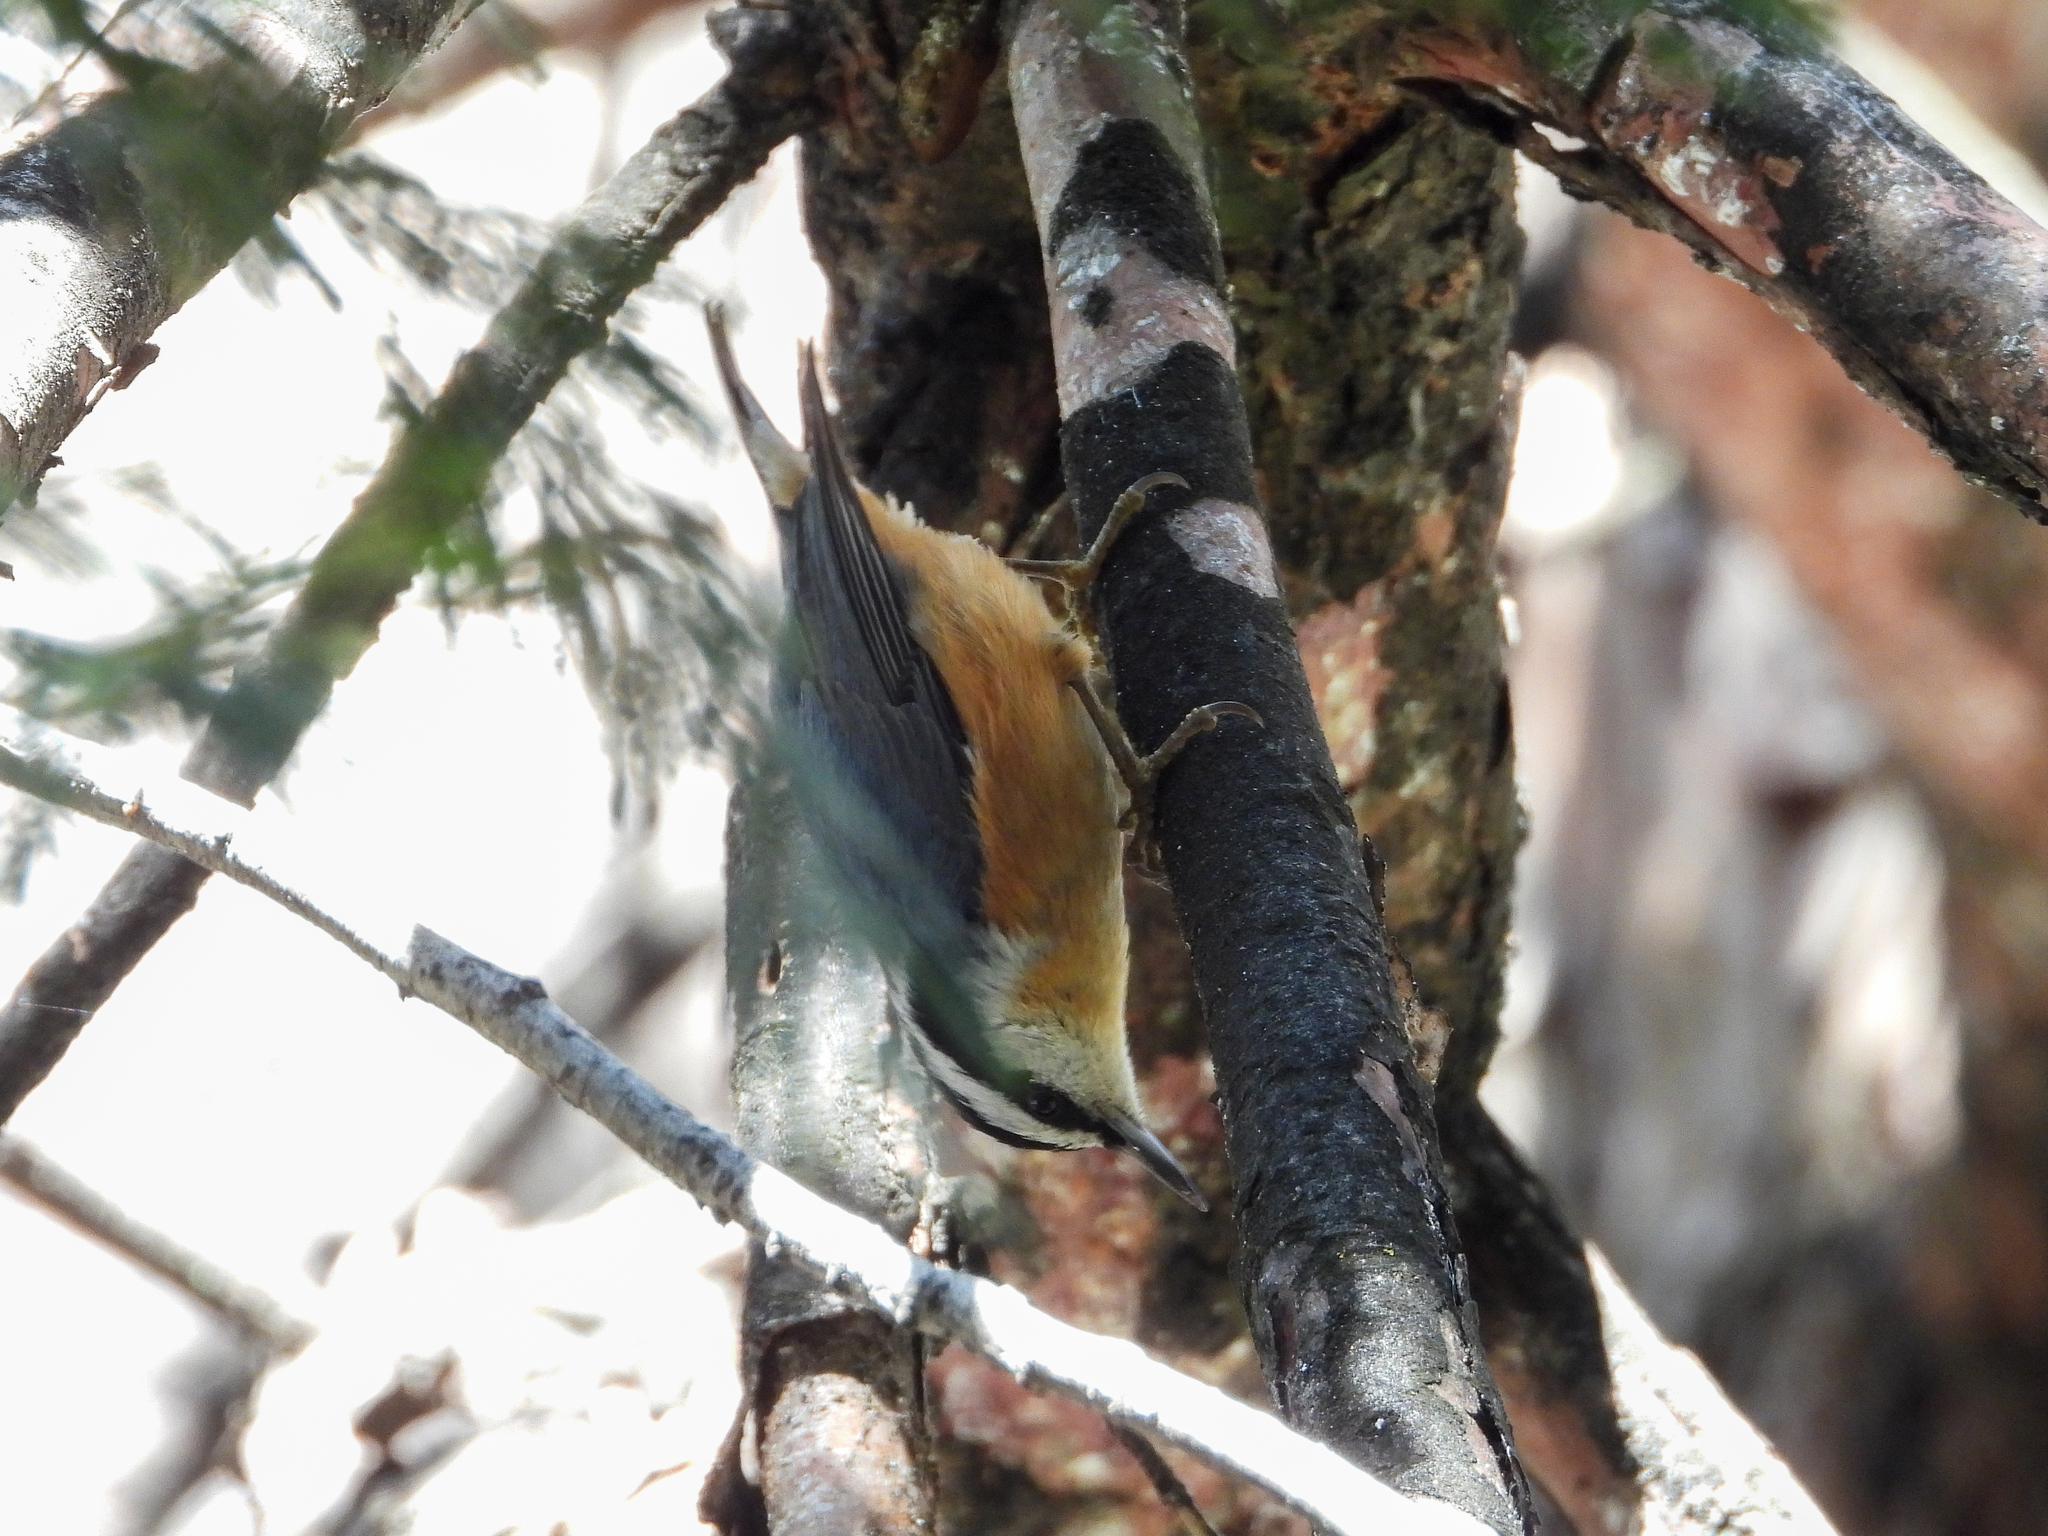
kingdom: Animalia
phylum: Chordata
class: Aves
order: Passeriformes
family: Sittidae
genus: Sitta
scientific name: Sitta canadensis
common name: Red-breasted nuthatch
